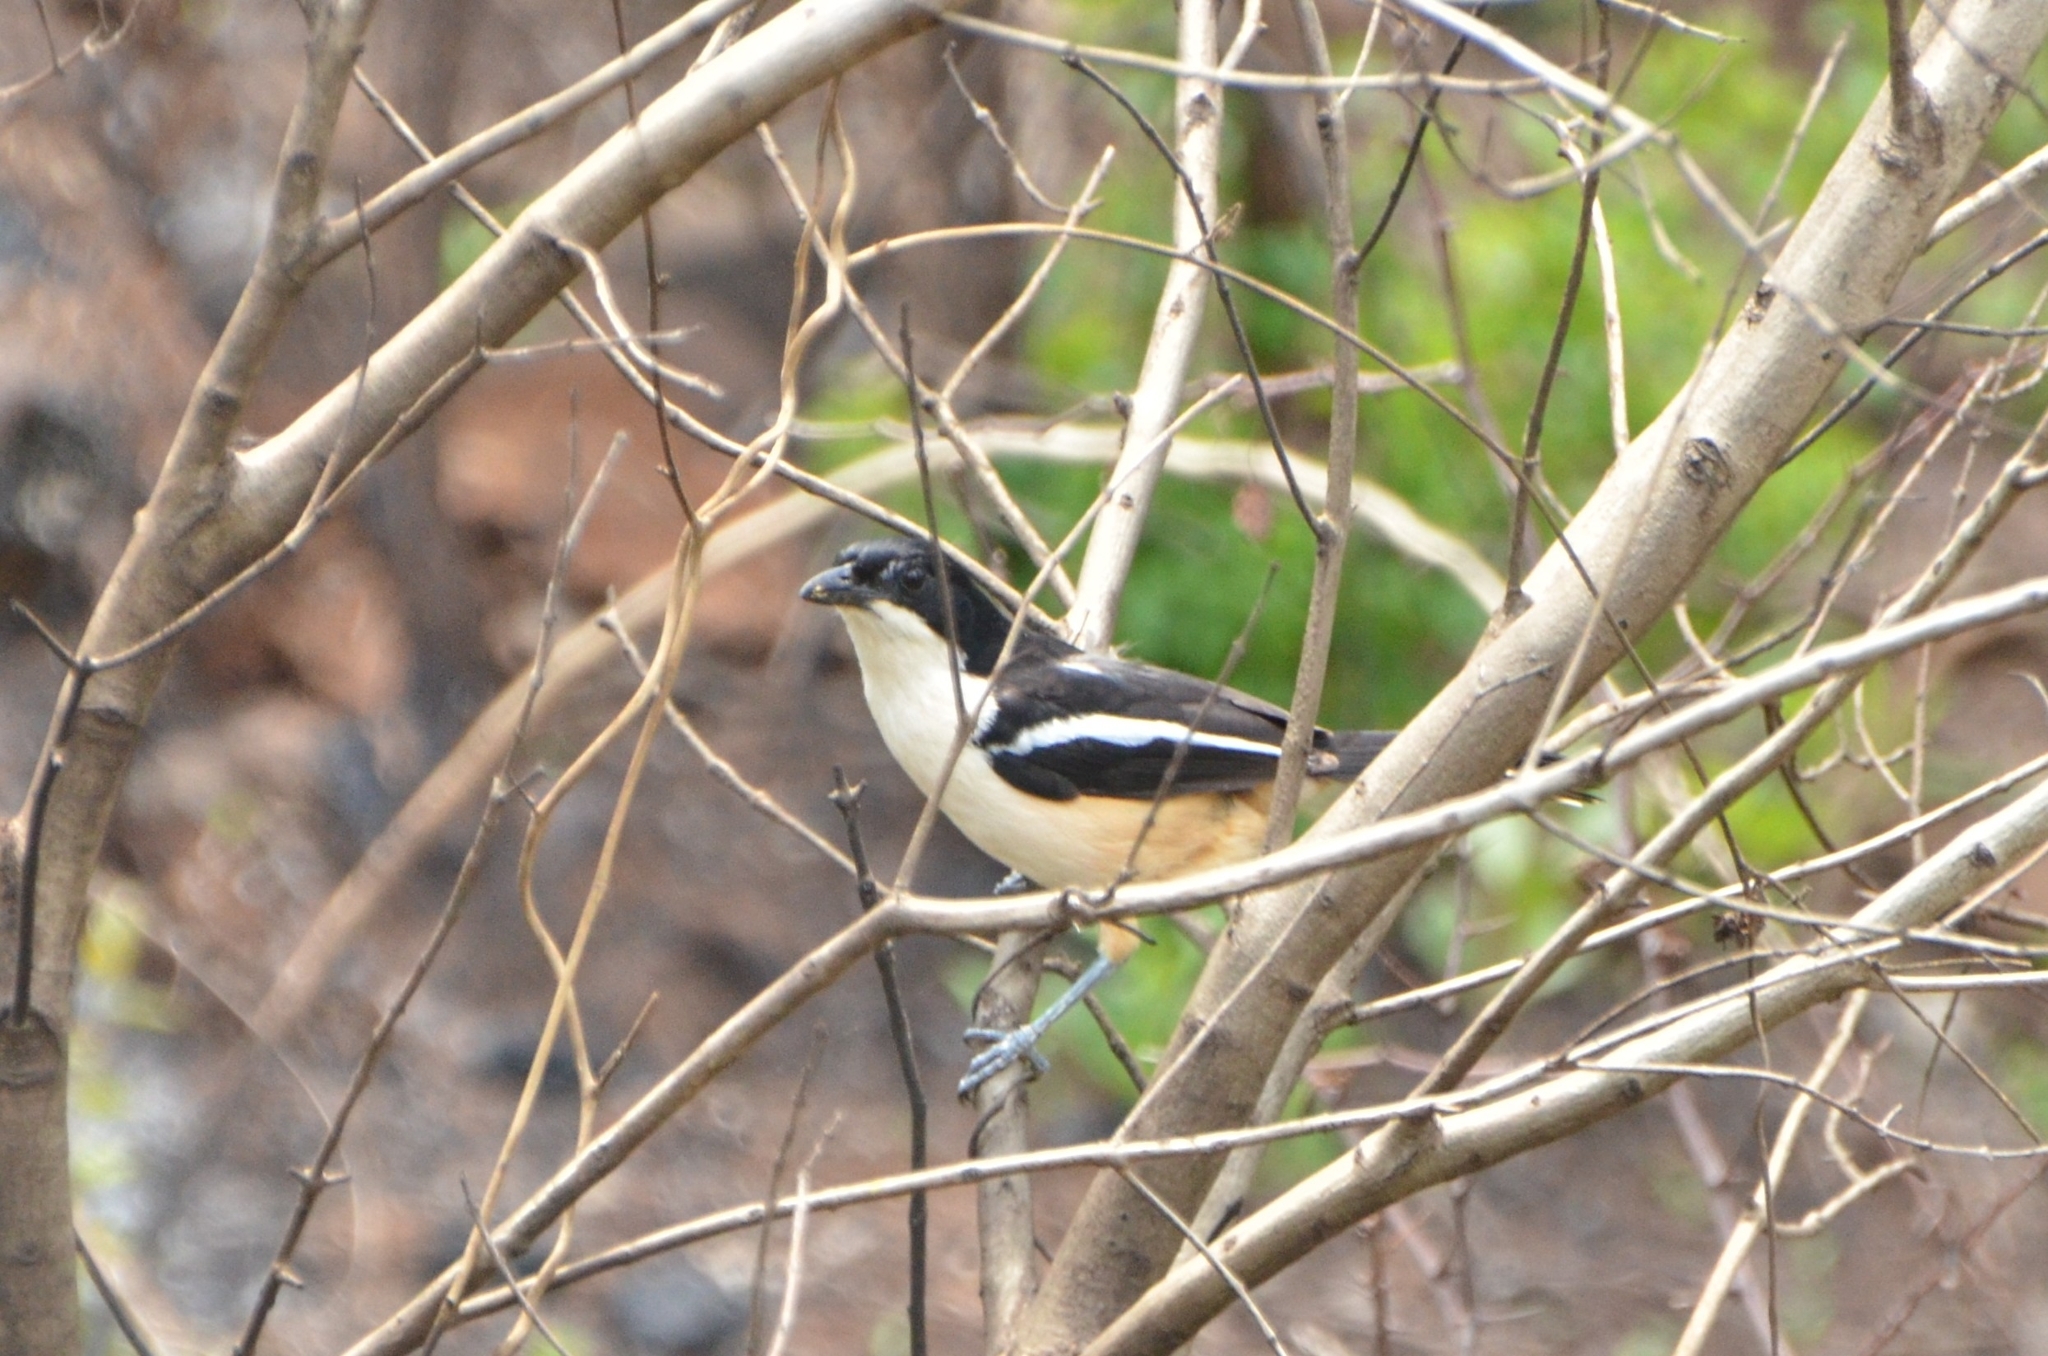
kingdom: Animalia
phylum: Chordata
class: Aves
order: Passeriformes
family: Malaconotidae
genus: Laniarius
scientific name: Laniarius ferrugineus
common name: Southern boubou
